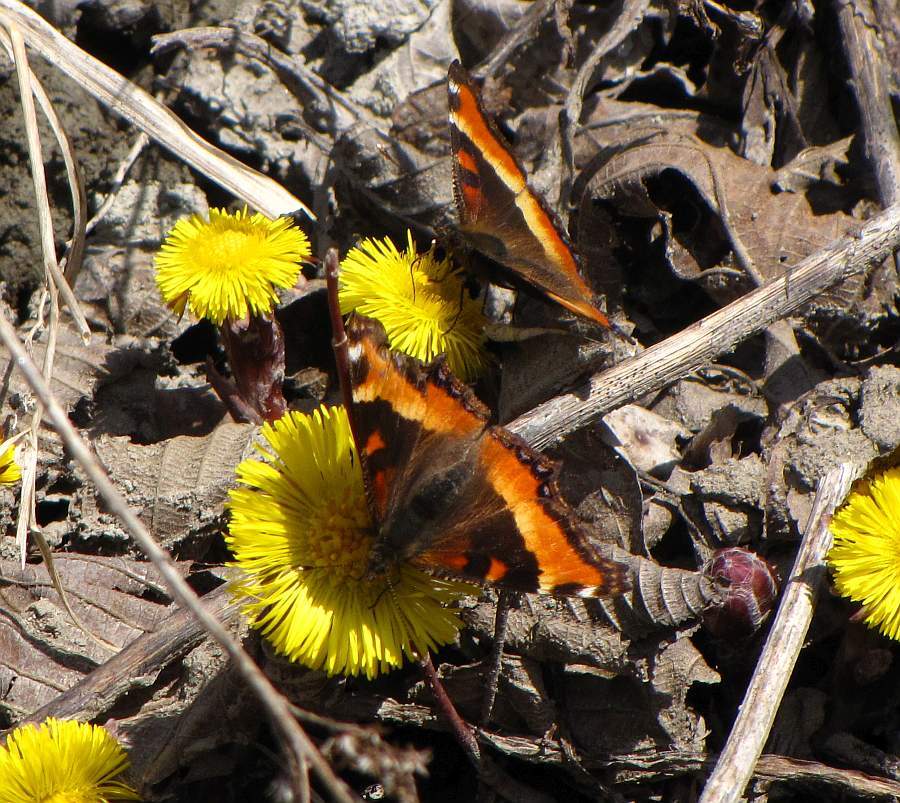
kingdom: Animalia
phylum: Arthropoda
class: Insecta
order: Lepidoptera
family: Nymphalidae
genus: Aglais
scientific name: Aglais milberti
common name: Milbert's tortoiseshell
